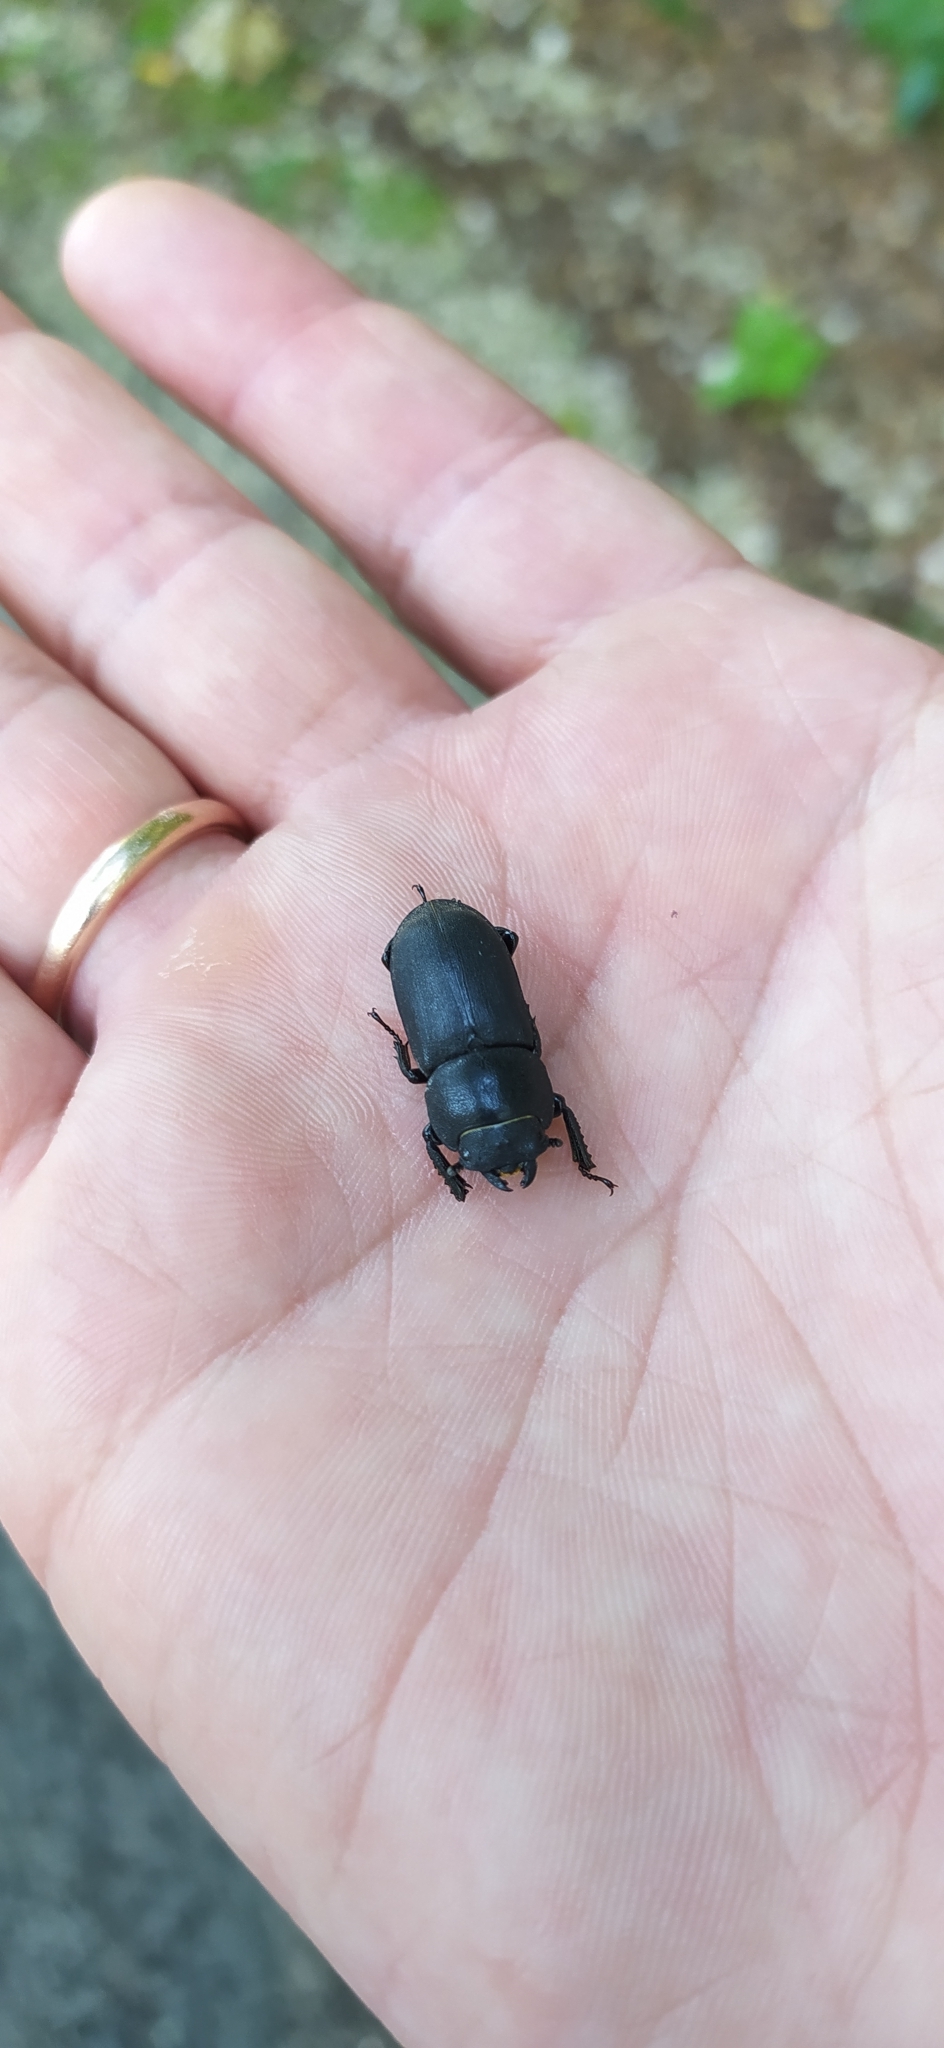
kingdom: Animalia
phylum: Arthropoda
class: Insecta
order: Coleoptera
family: Lucanidae
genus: Dorcus
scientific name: Dorcus parallelipipedus
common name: Lesser stag beetle
